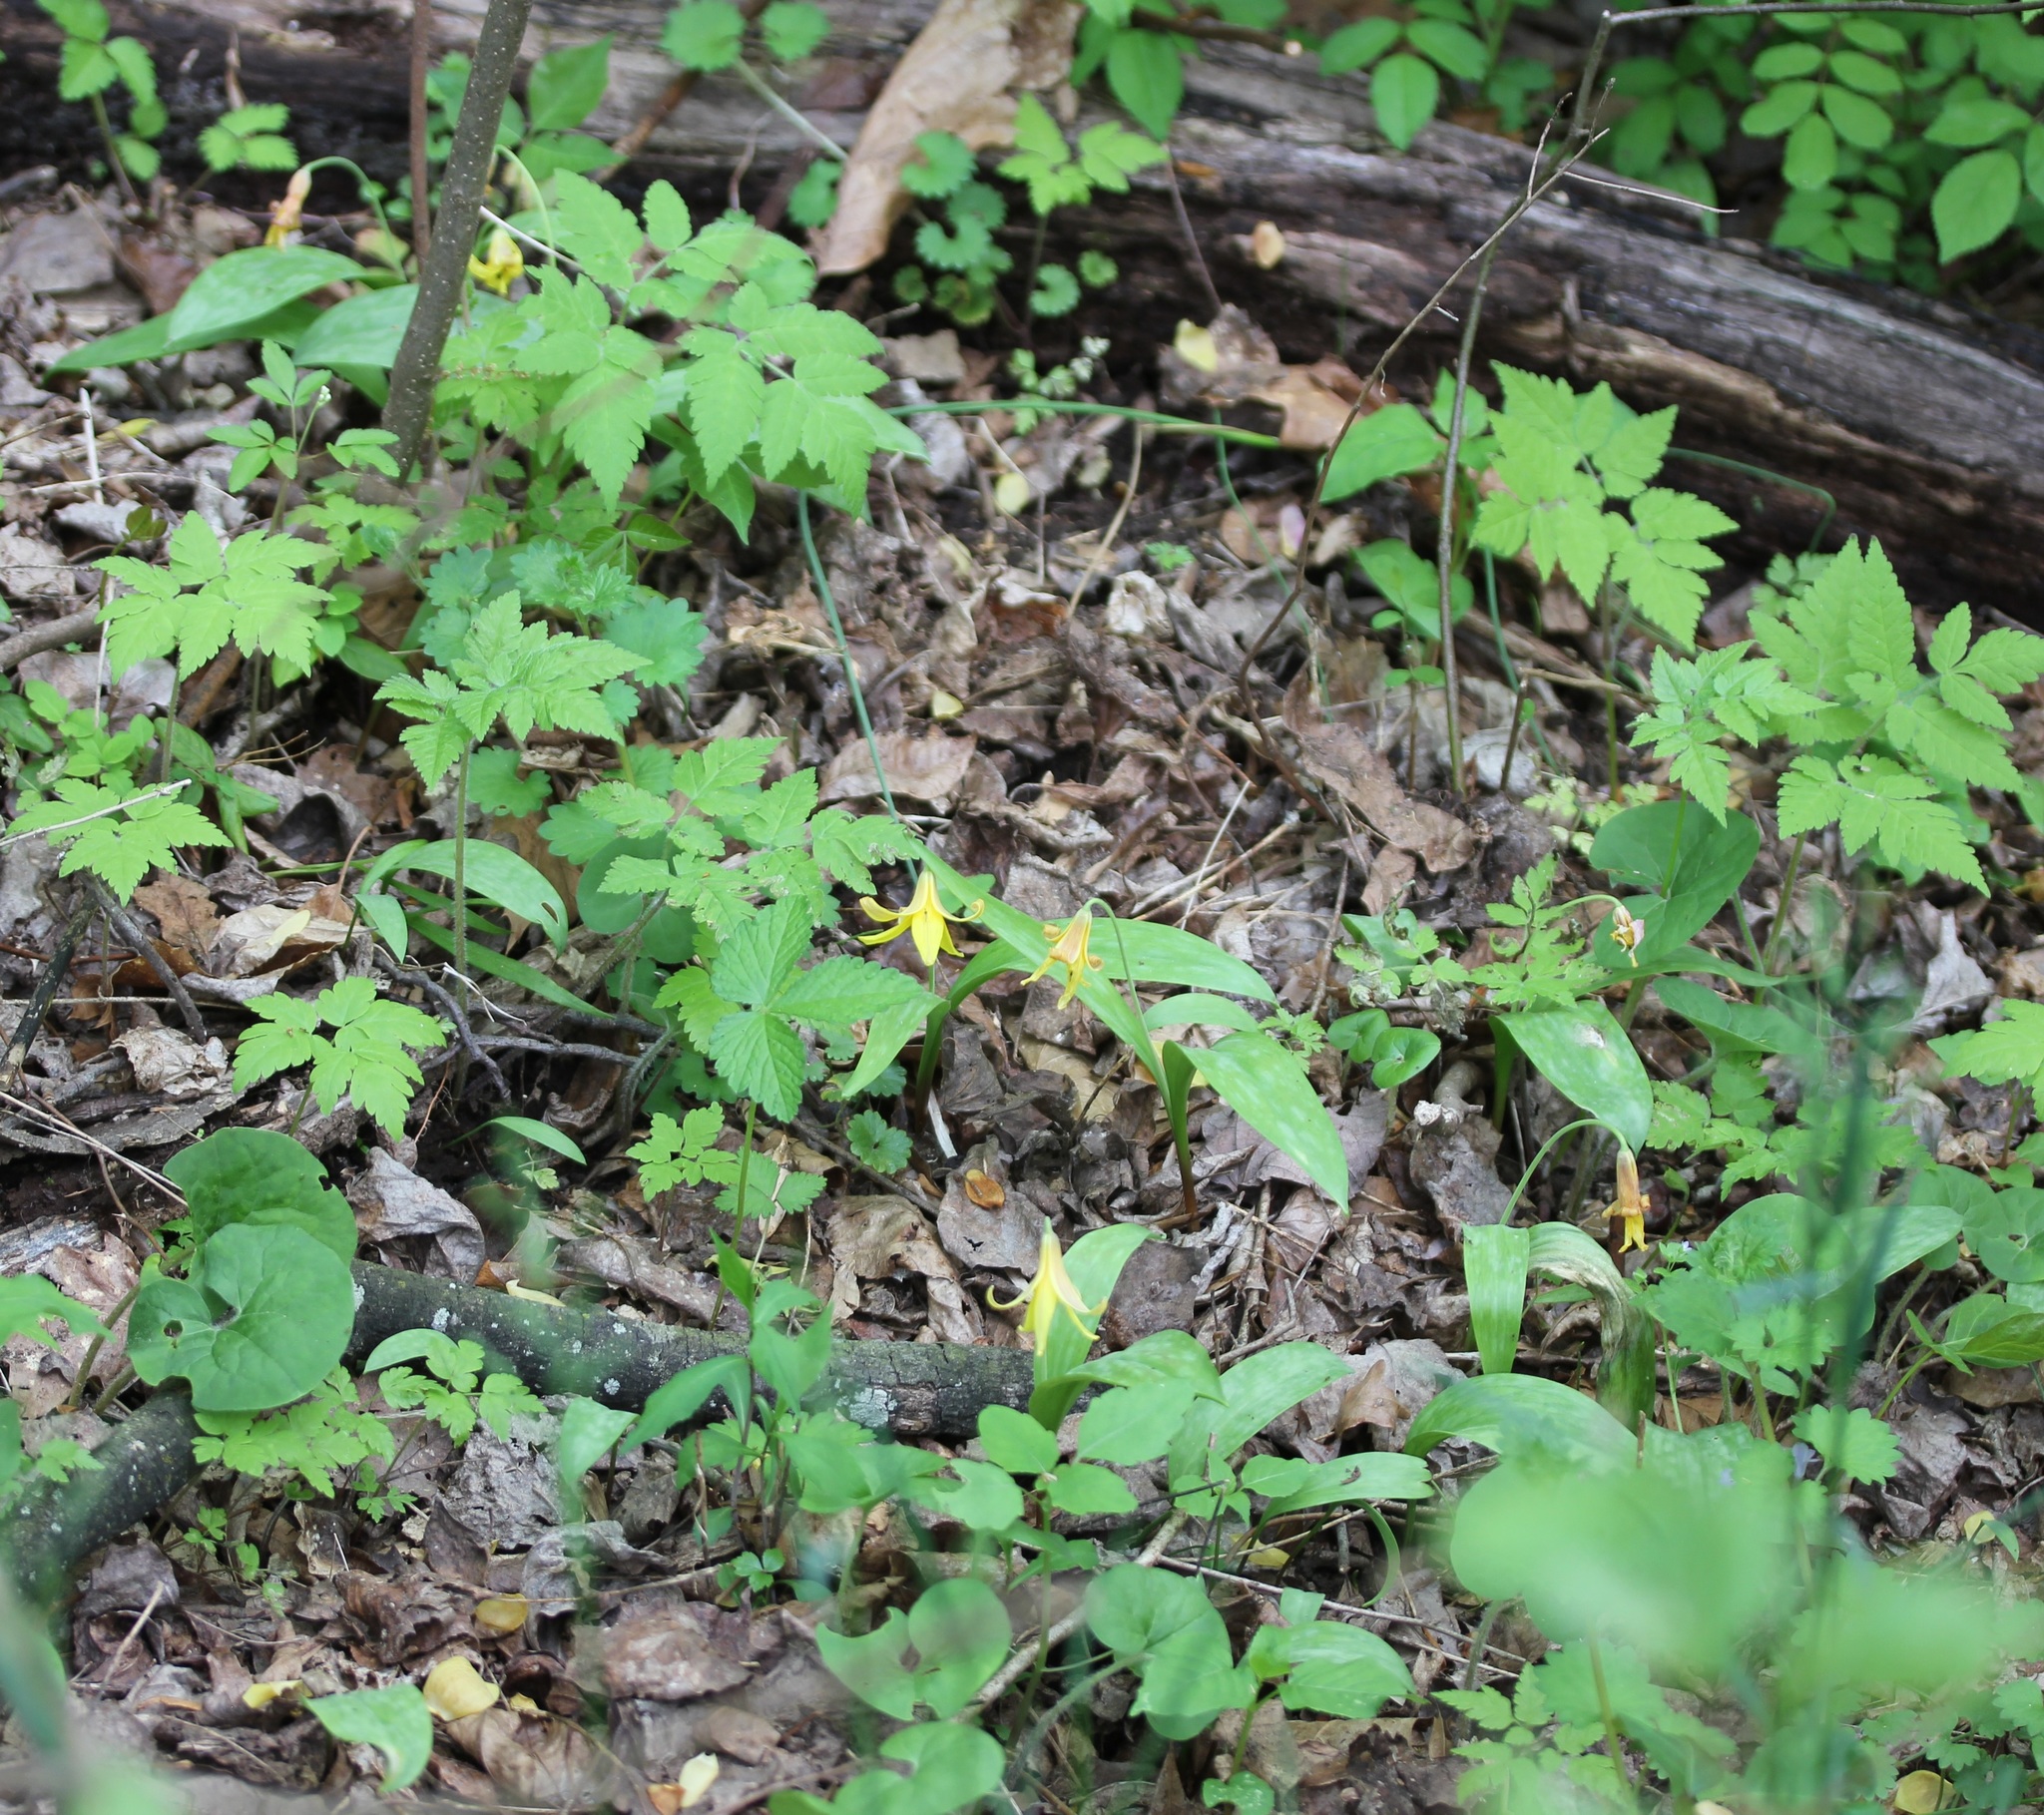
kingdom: Plantae
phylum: Tracheophyta
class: Liliopsida
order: Liliales
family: Liliaceae
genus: Erythronium
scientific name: Erythronium americanum
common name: Yellow adder's-tongue
